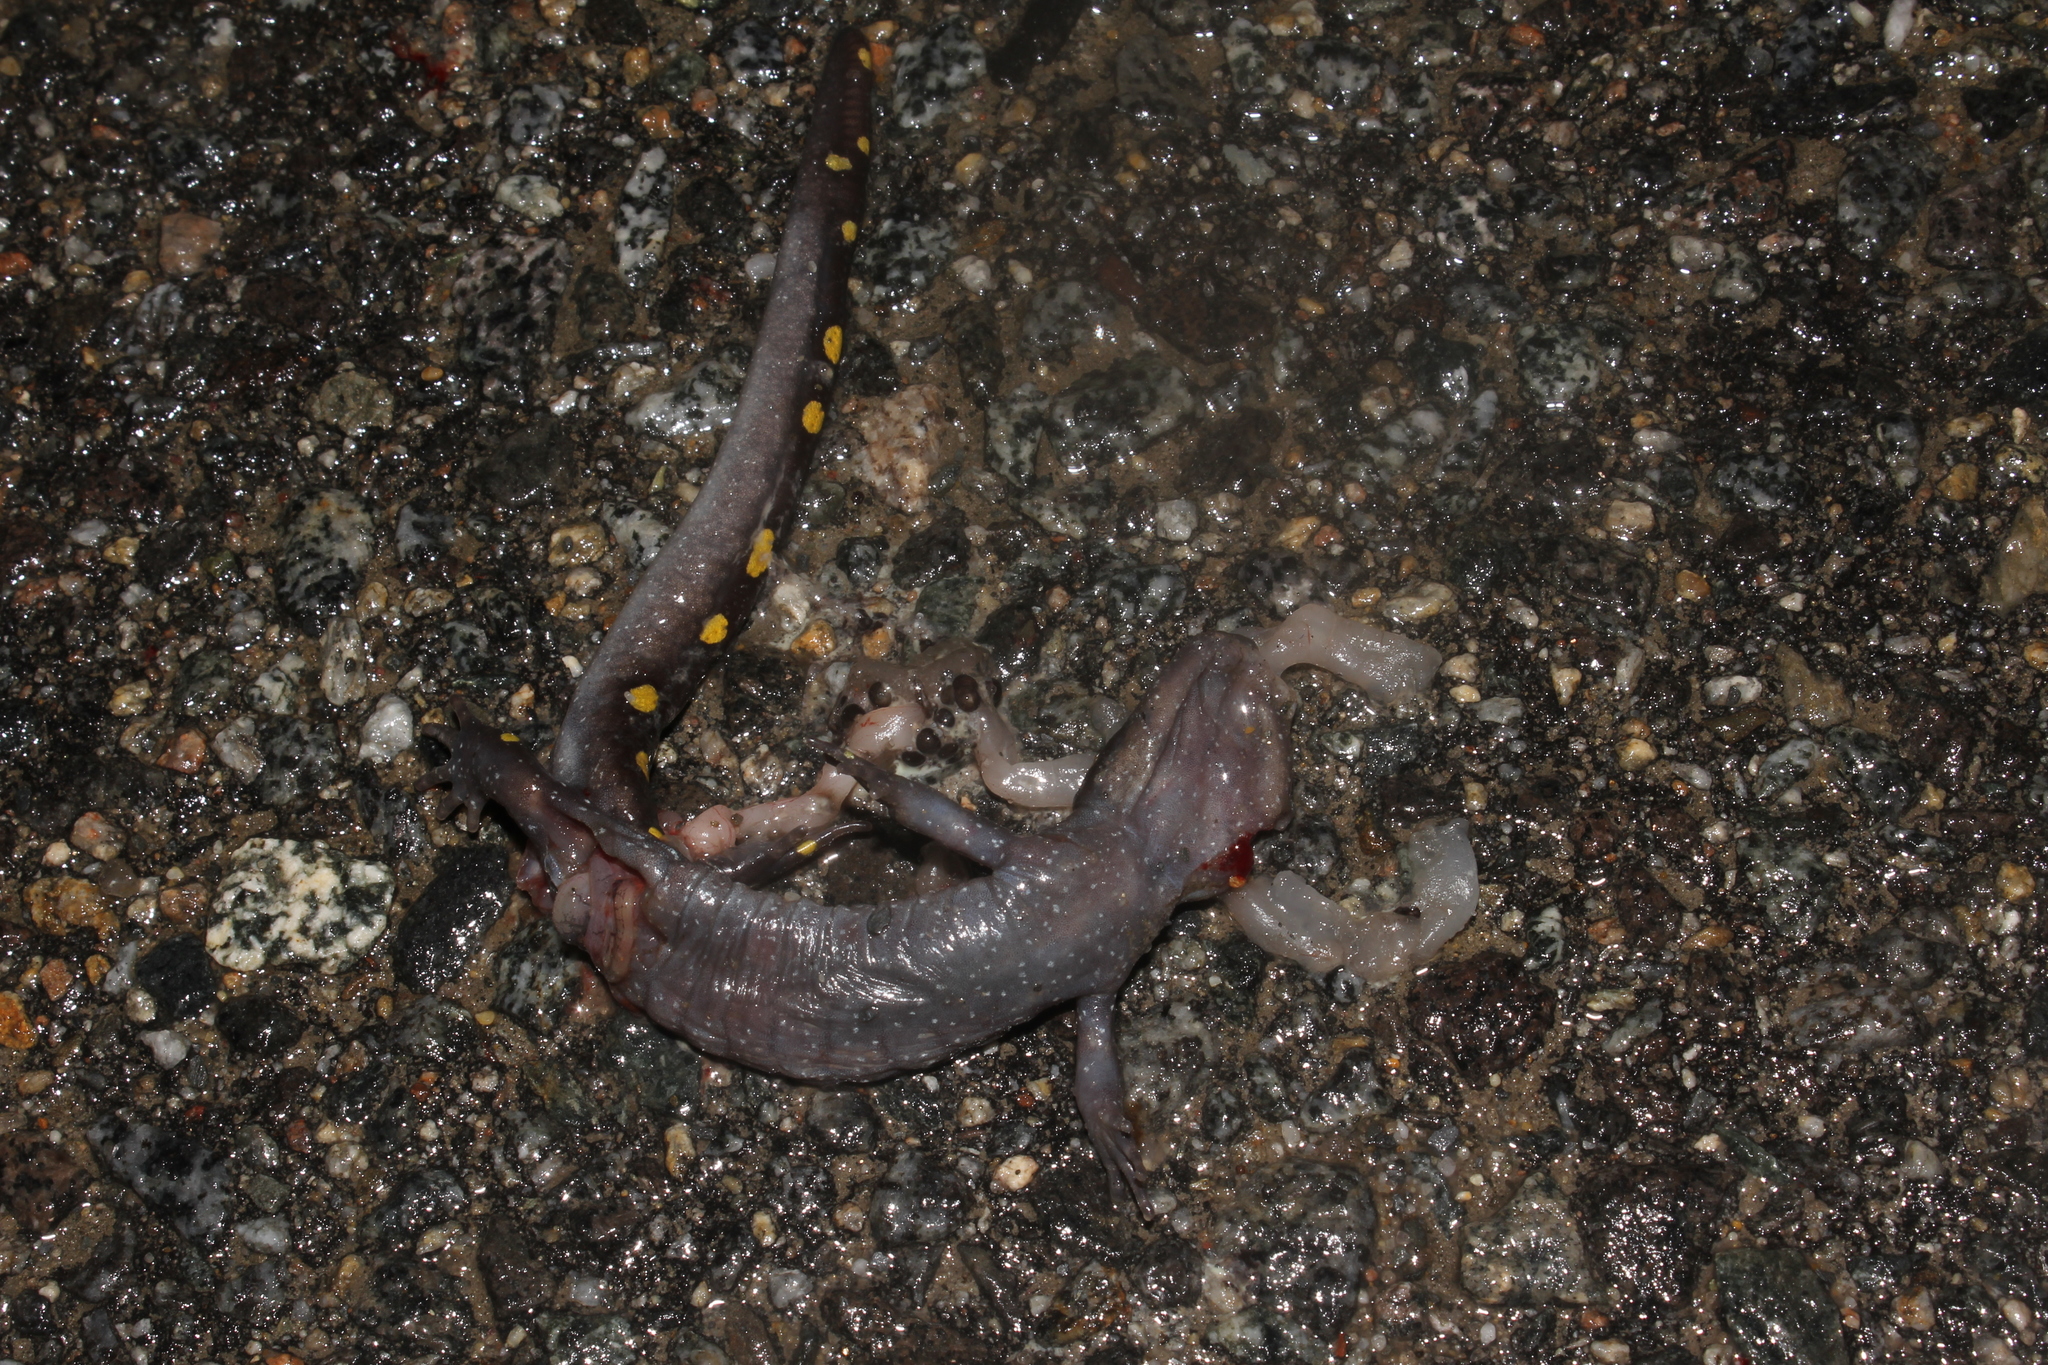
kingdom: Animalia
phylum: Chordata
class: Amphibia
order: Caudata
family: Ambystomatidae
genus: Ambystoma
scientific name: Ambystoma maculatum
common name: Spotted salamander
